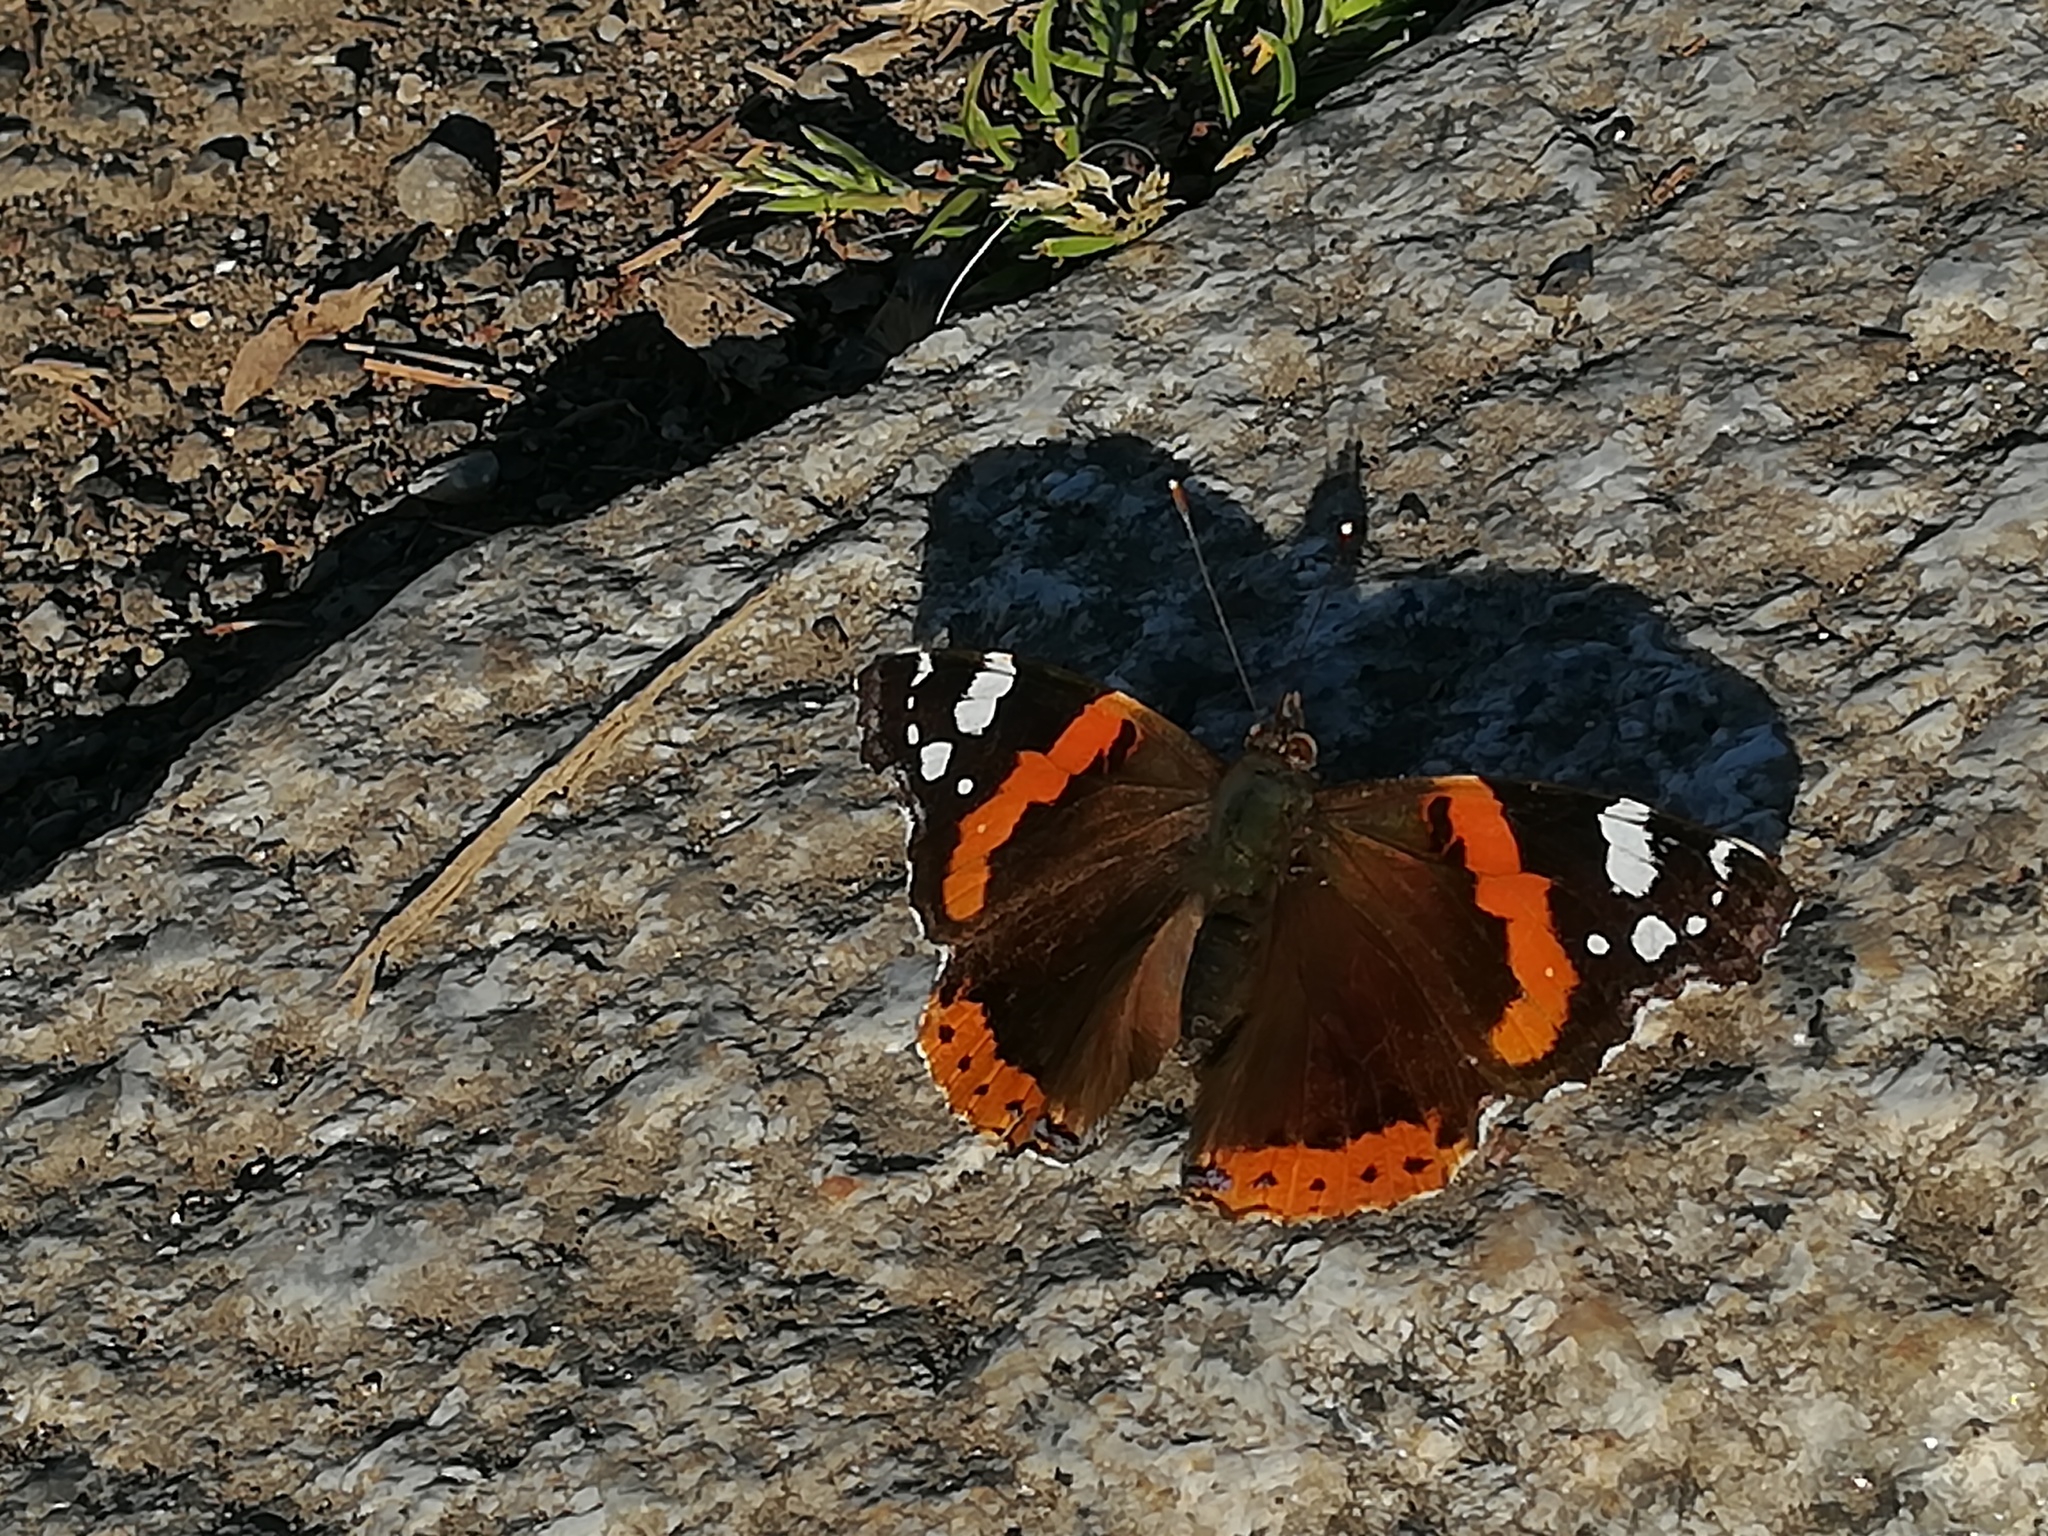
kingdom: Animalia
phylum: Arthropoda
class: Insecta
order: Lepidoptera
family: Nymphalidae
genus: Vanessa
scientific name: Vanessa atalanta
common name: Red admiral
